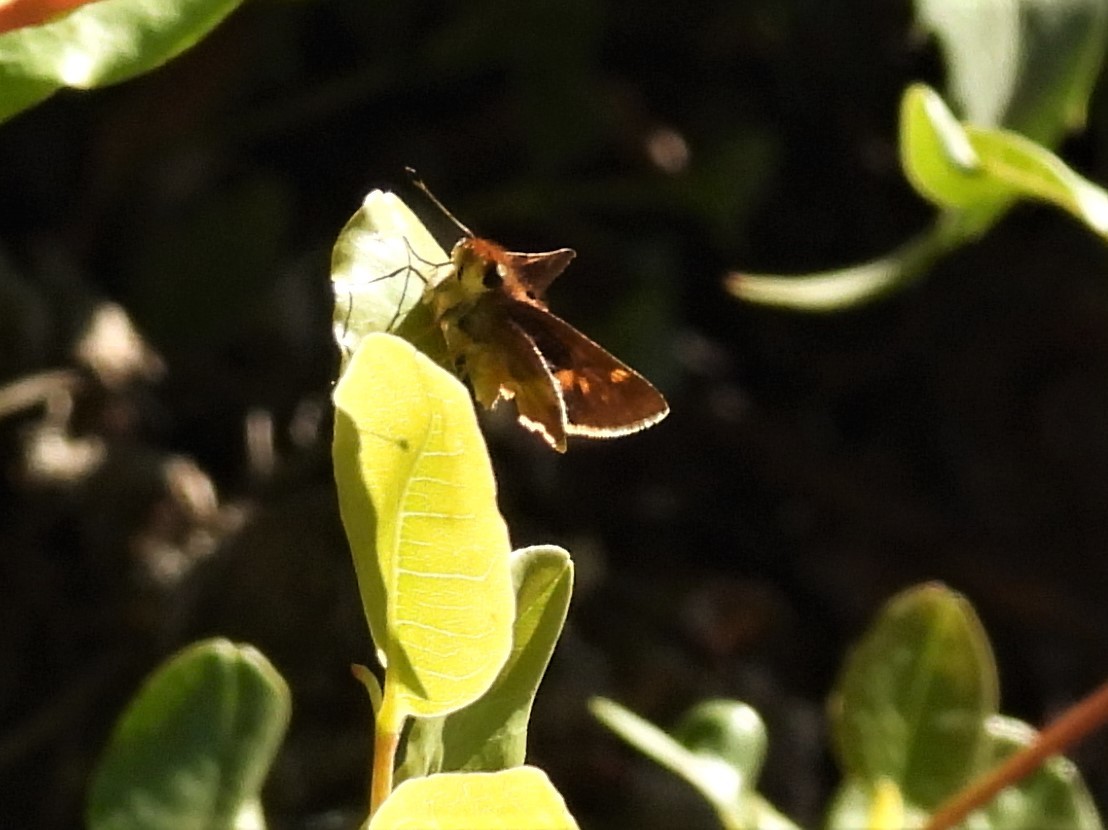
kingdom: Animalia
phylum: Arthropoda
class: Insecta
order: Lepidoptera
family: Hesperiidae
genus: Lon
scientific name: Lon melane
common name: Umber skipper
